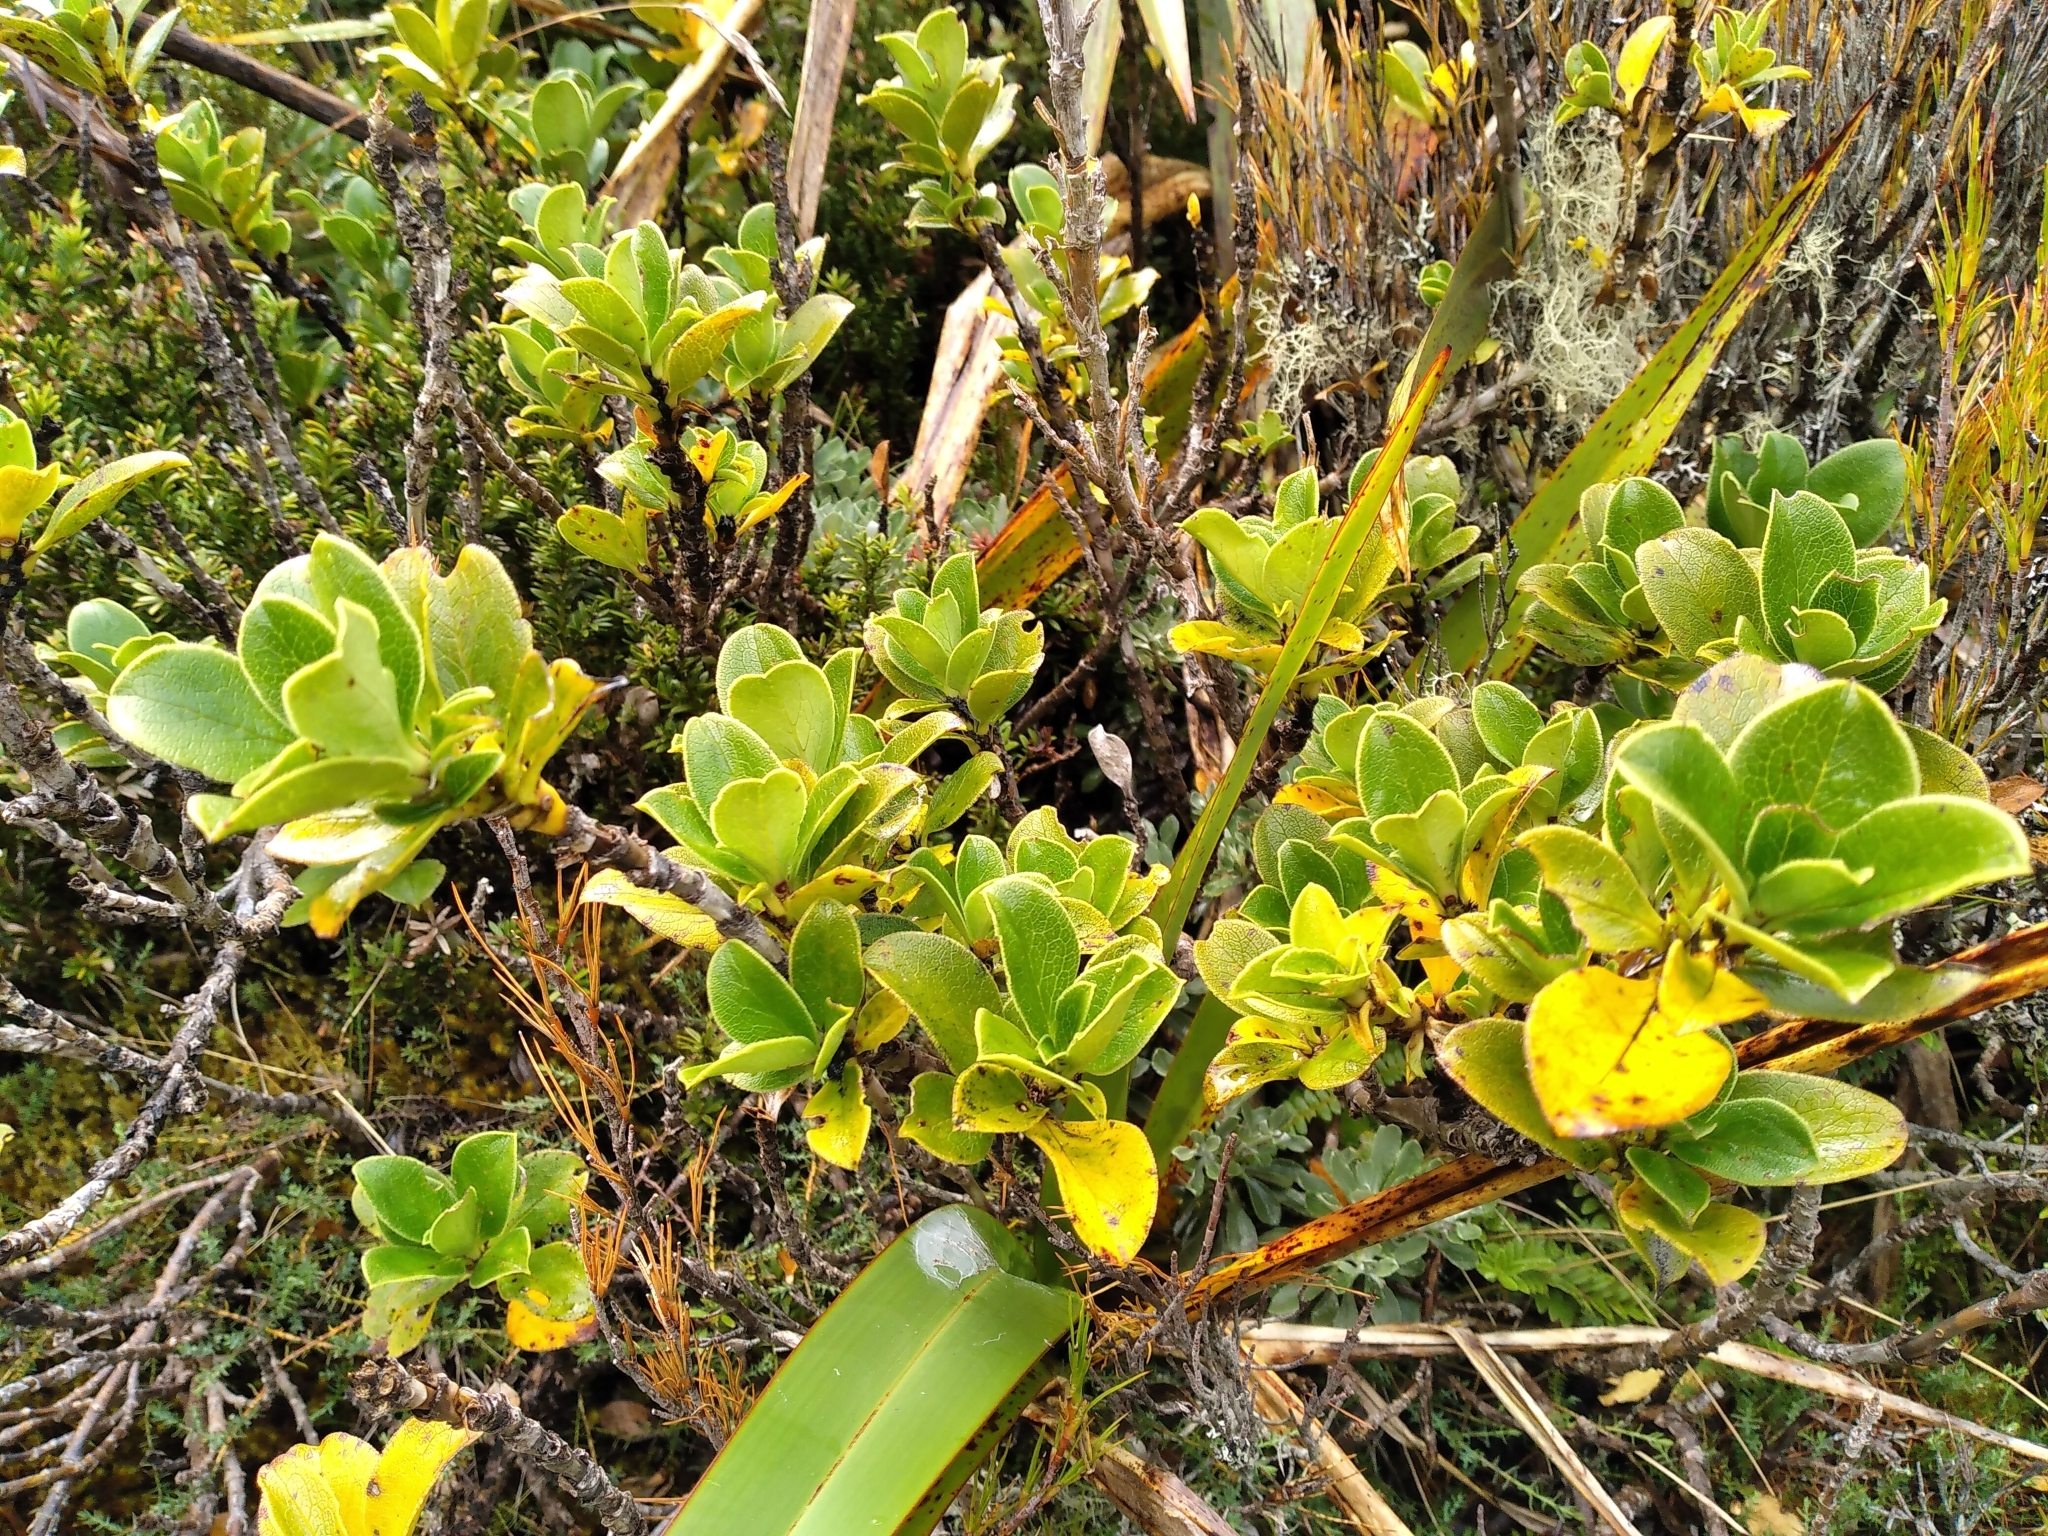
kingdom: Plantae
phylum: Tracheophyta
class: Magnoliopsida
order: Gentianales
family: Rubiaceae
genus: Coprosma
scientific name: Coprosma serrulata
